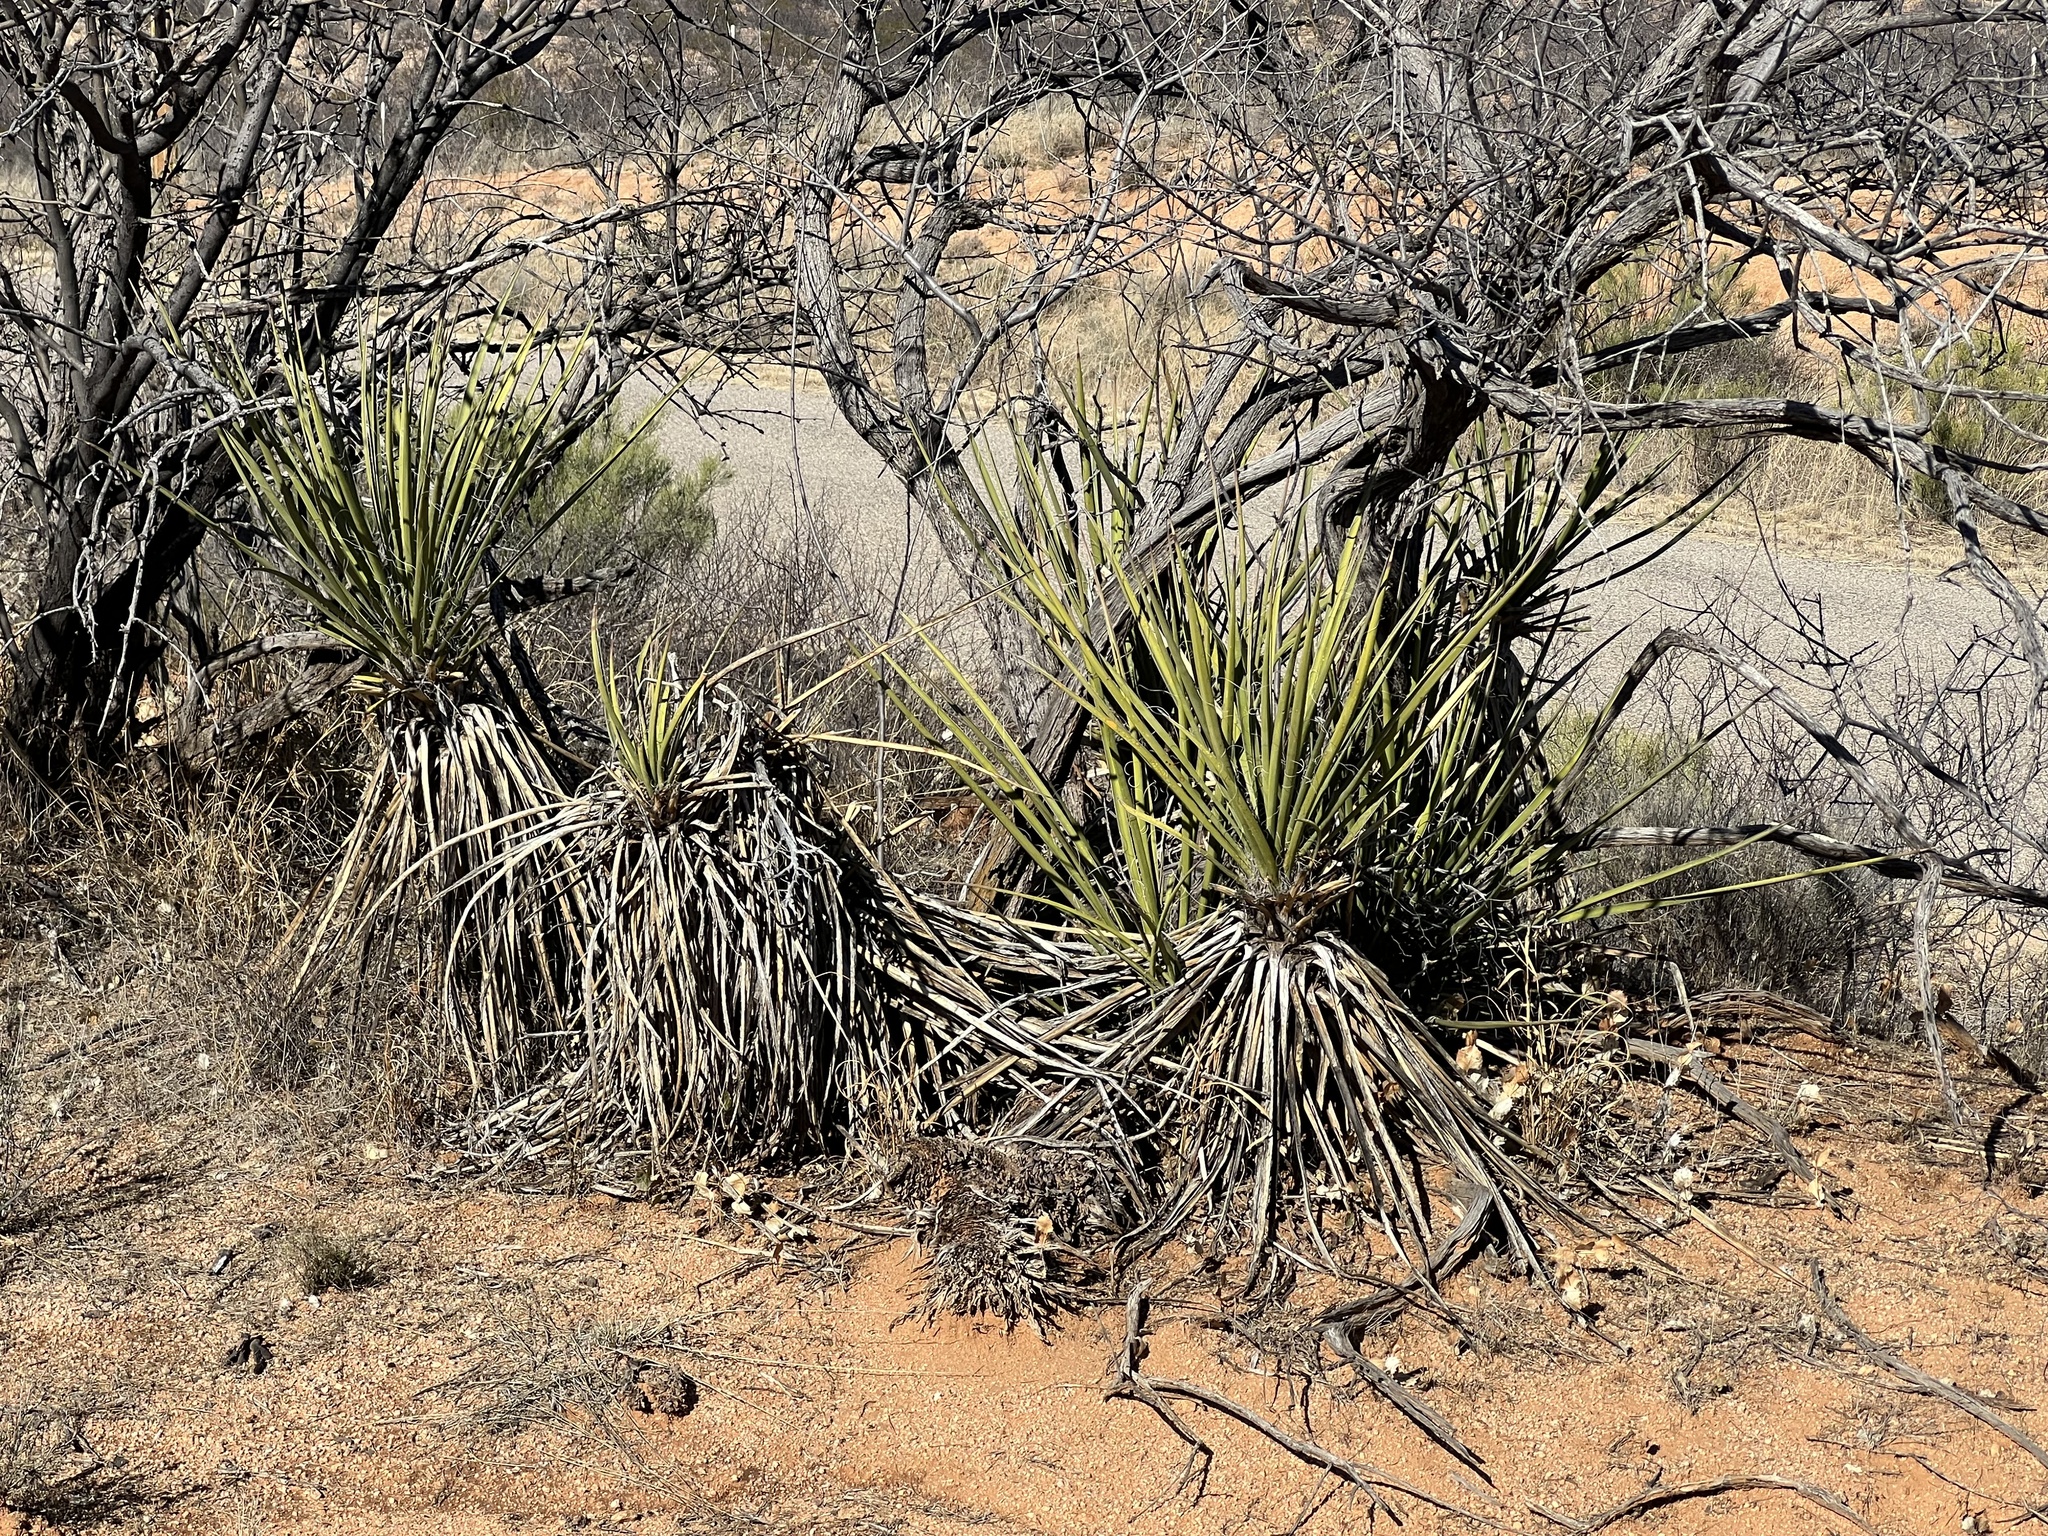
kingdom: Plantae
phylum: Tracheophyta
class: Liliopsida
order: Asparagales
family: Asparagaceae
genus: Yucca
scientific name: Yucca baccata
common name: Banana yucca
